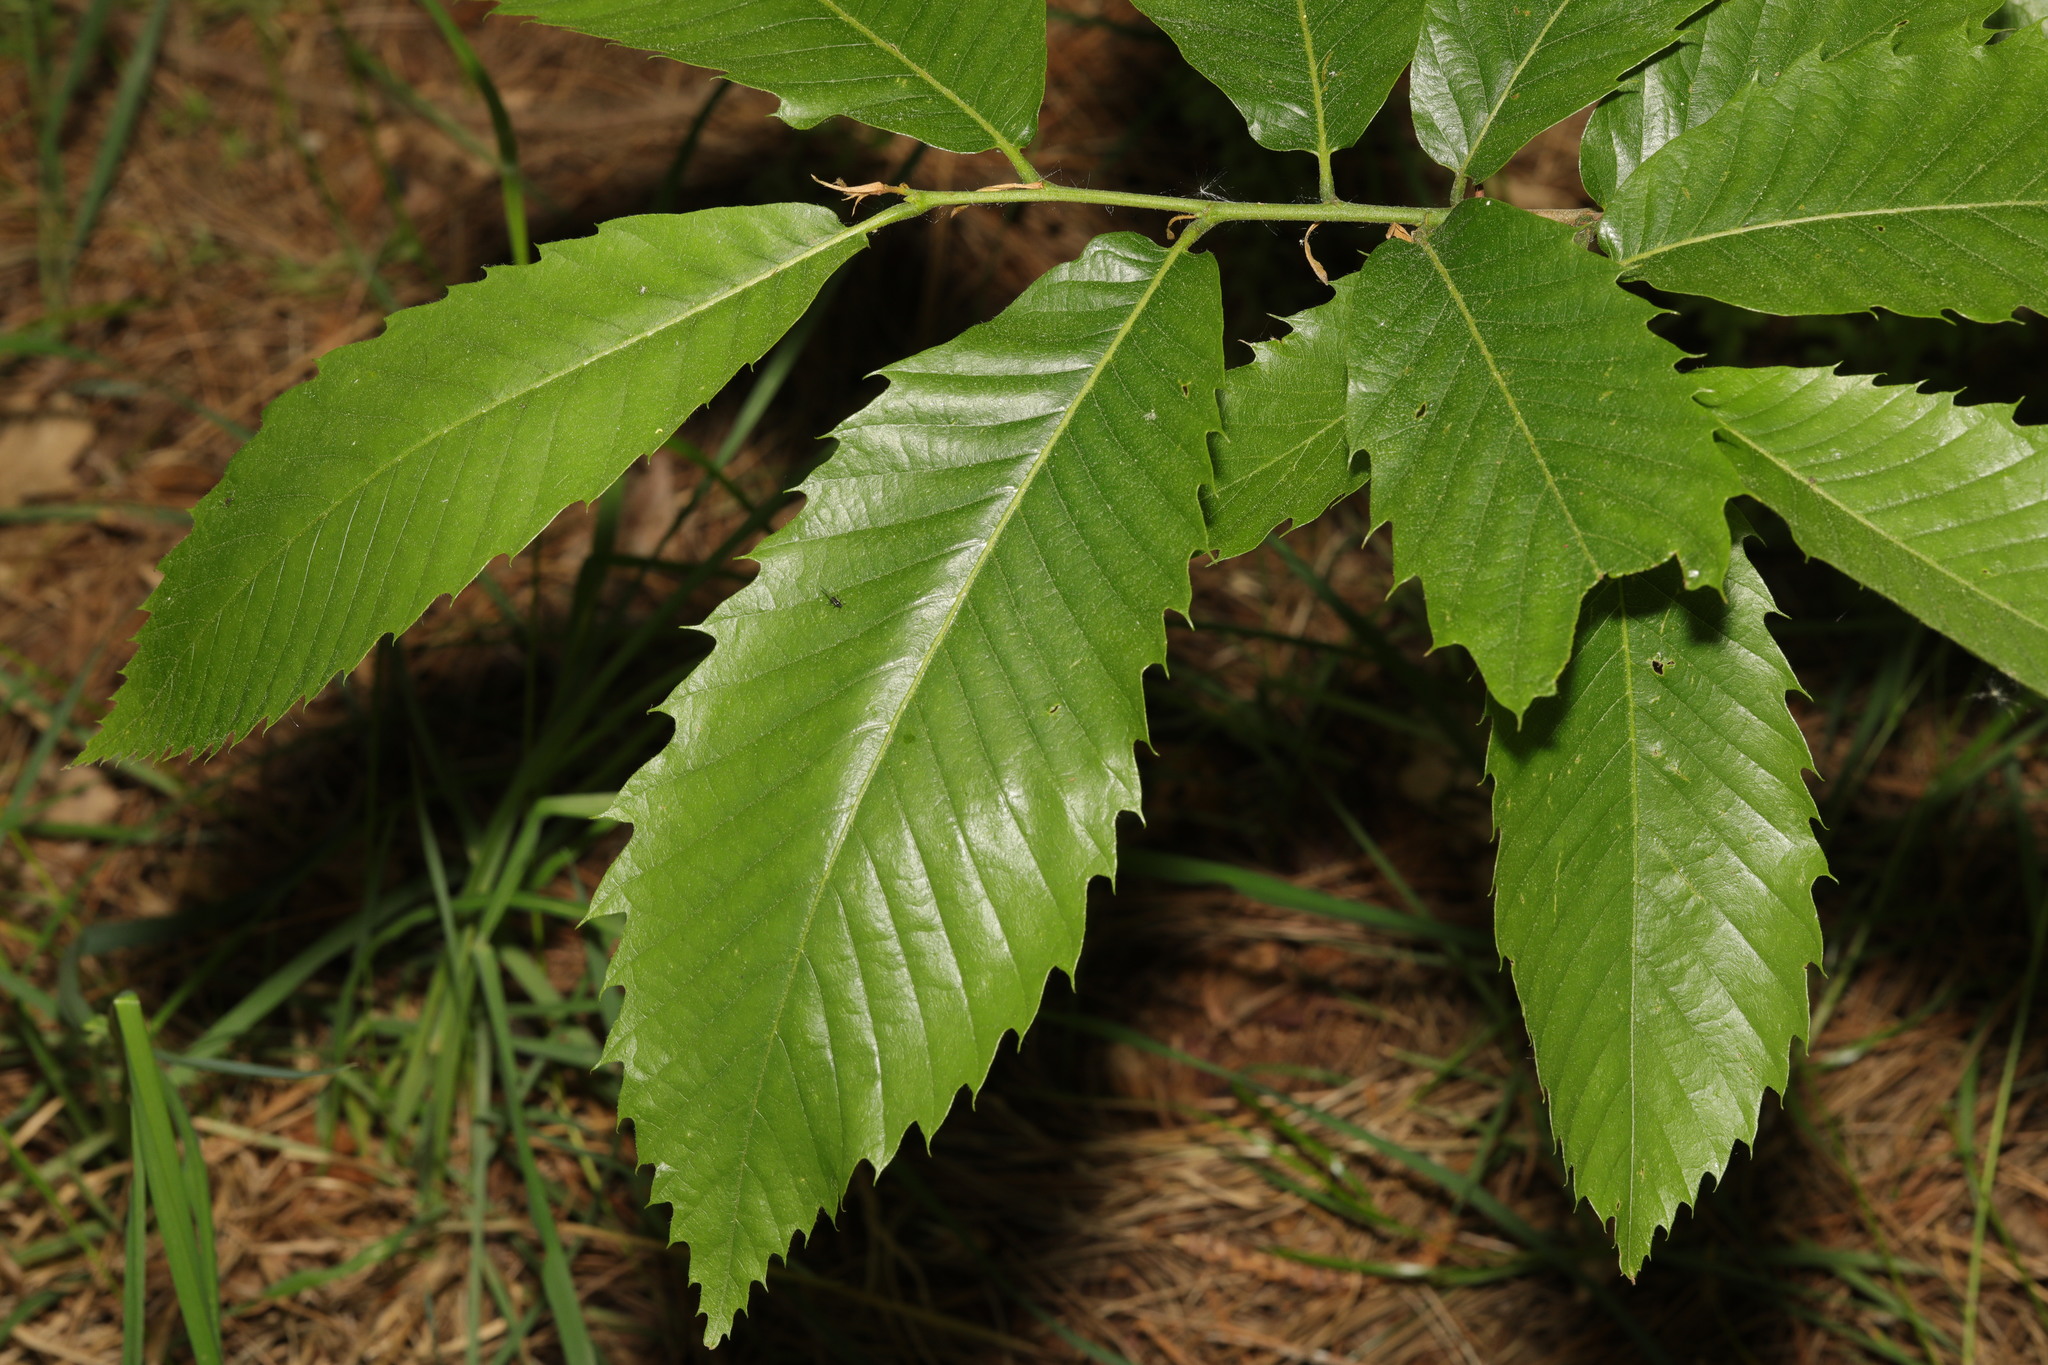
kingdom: Plantae
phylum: Tracheophyta
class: Magnoliopsida
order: Fagales
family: Fagaceae
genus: Castanea
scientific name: Castanea sativa
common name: Sweet chestnut
